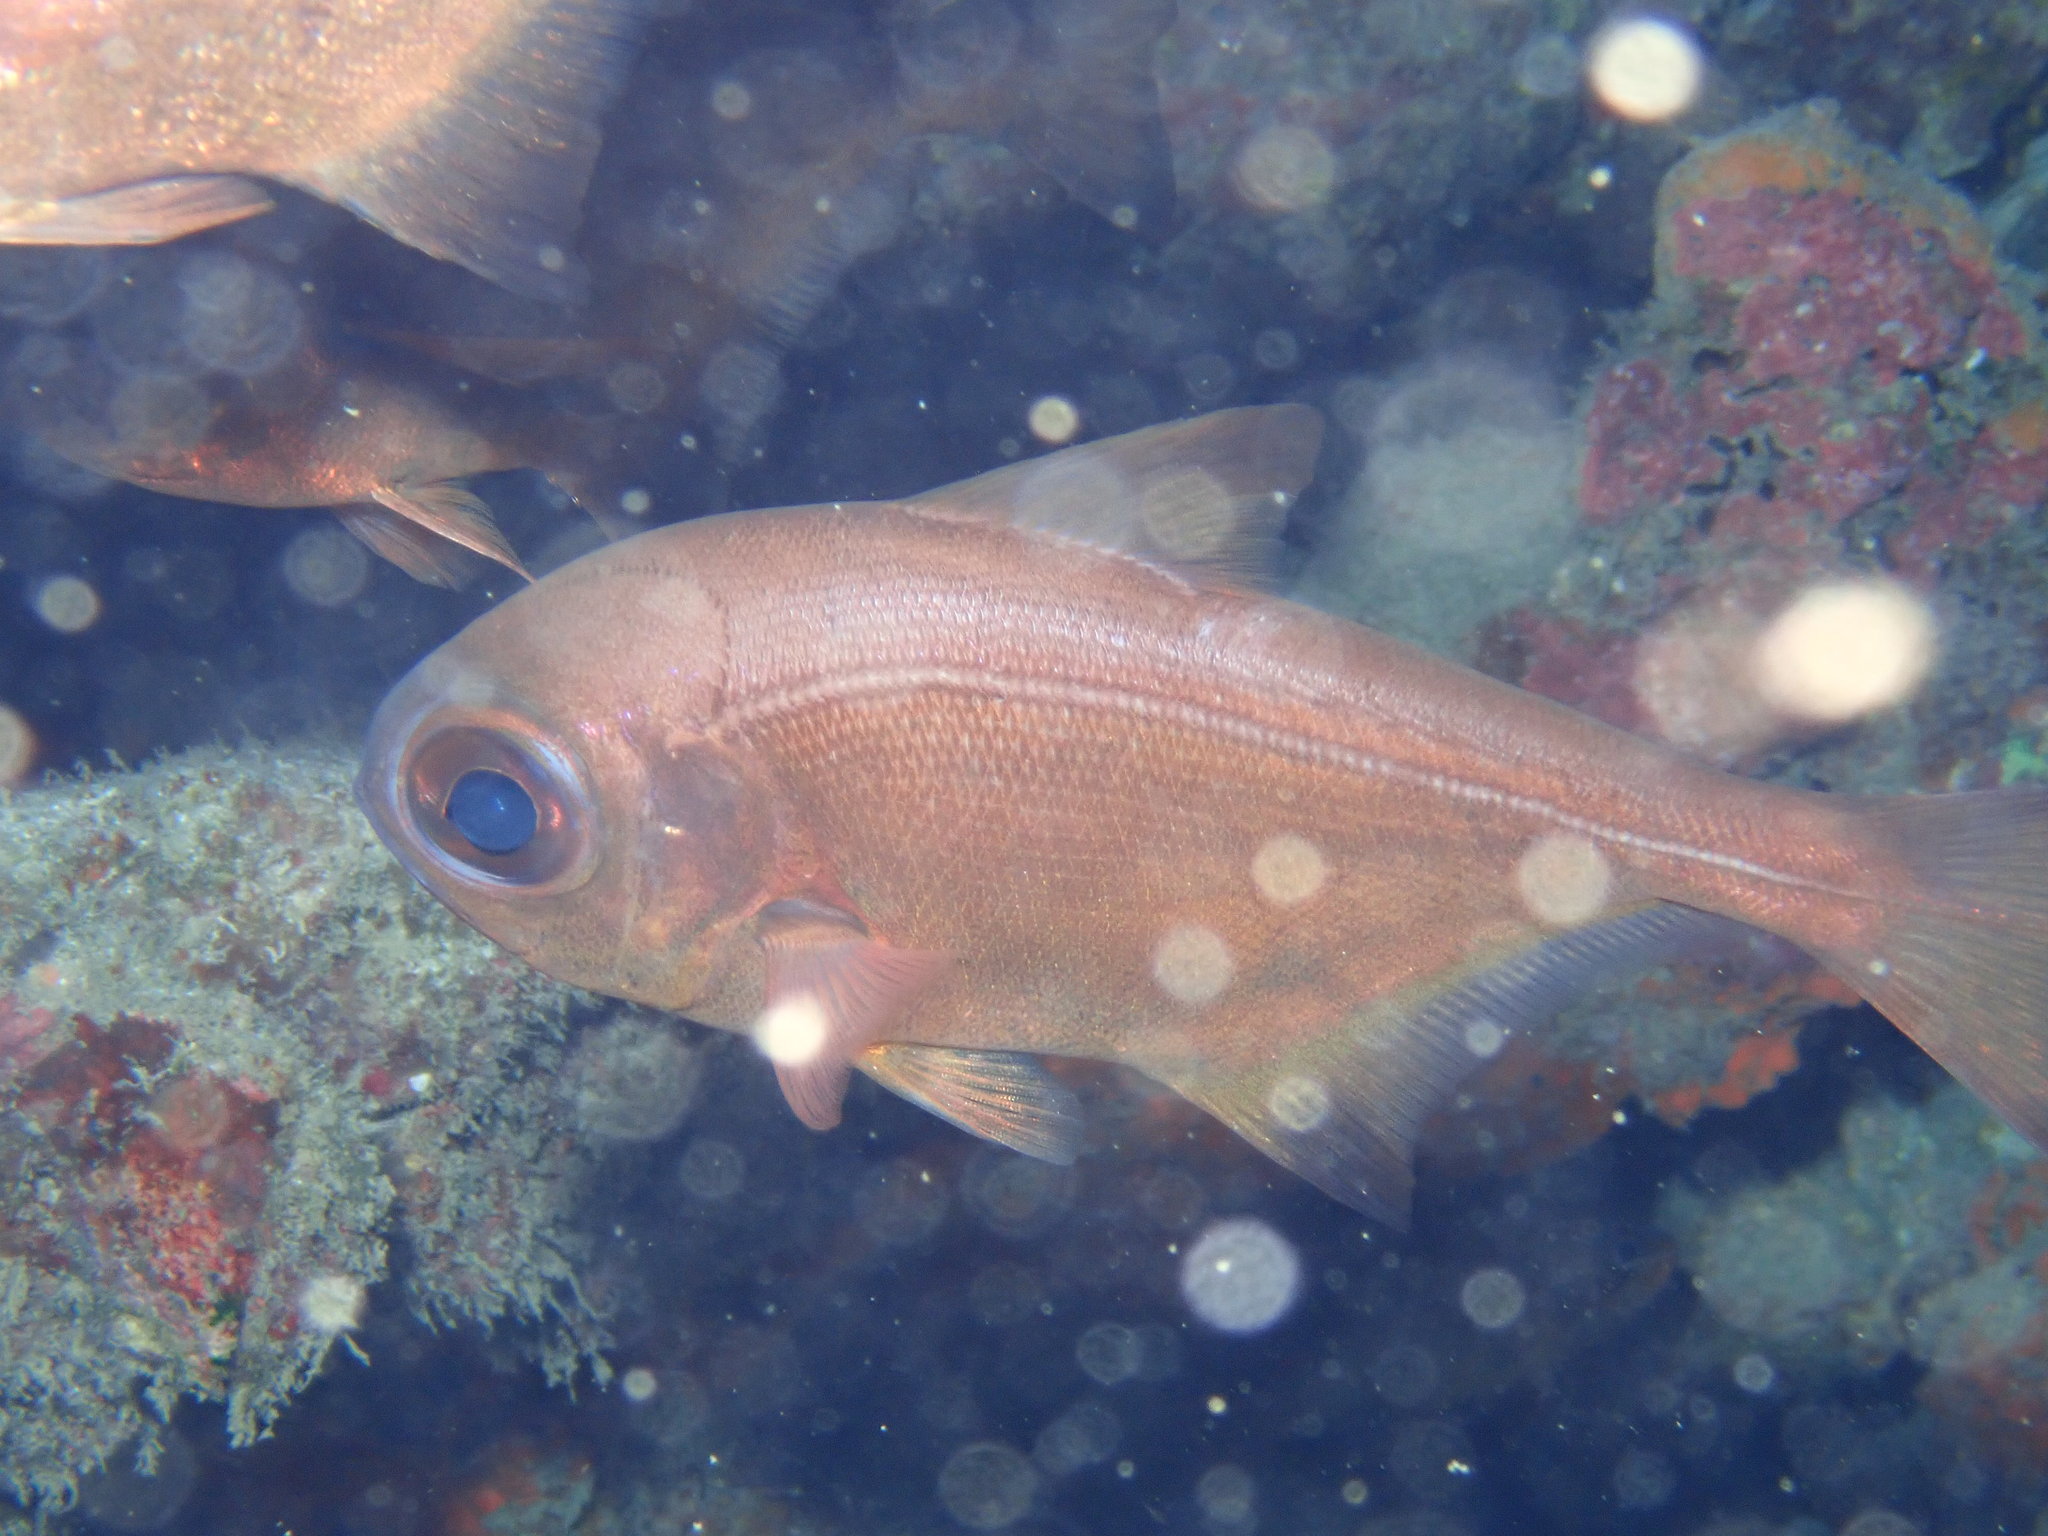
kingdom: Animalia
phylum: Chordata
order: Perciformes
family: Pempheridae
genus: Pempheris
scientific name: Pempheris analis
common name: Big eye
